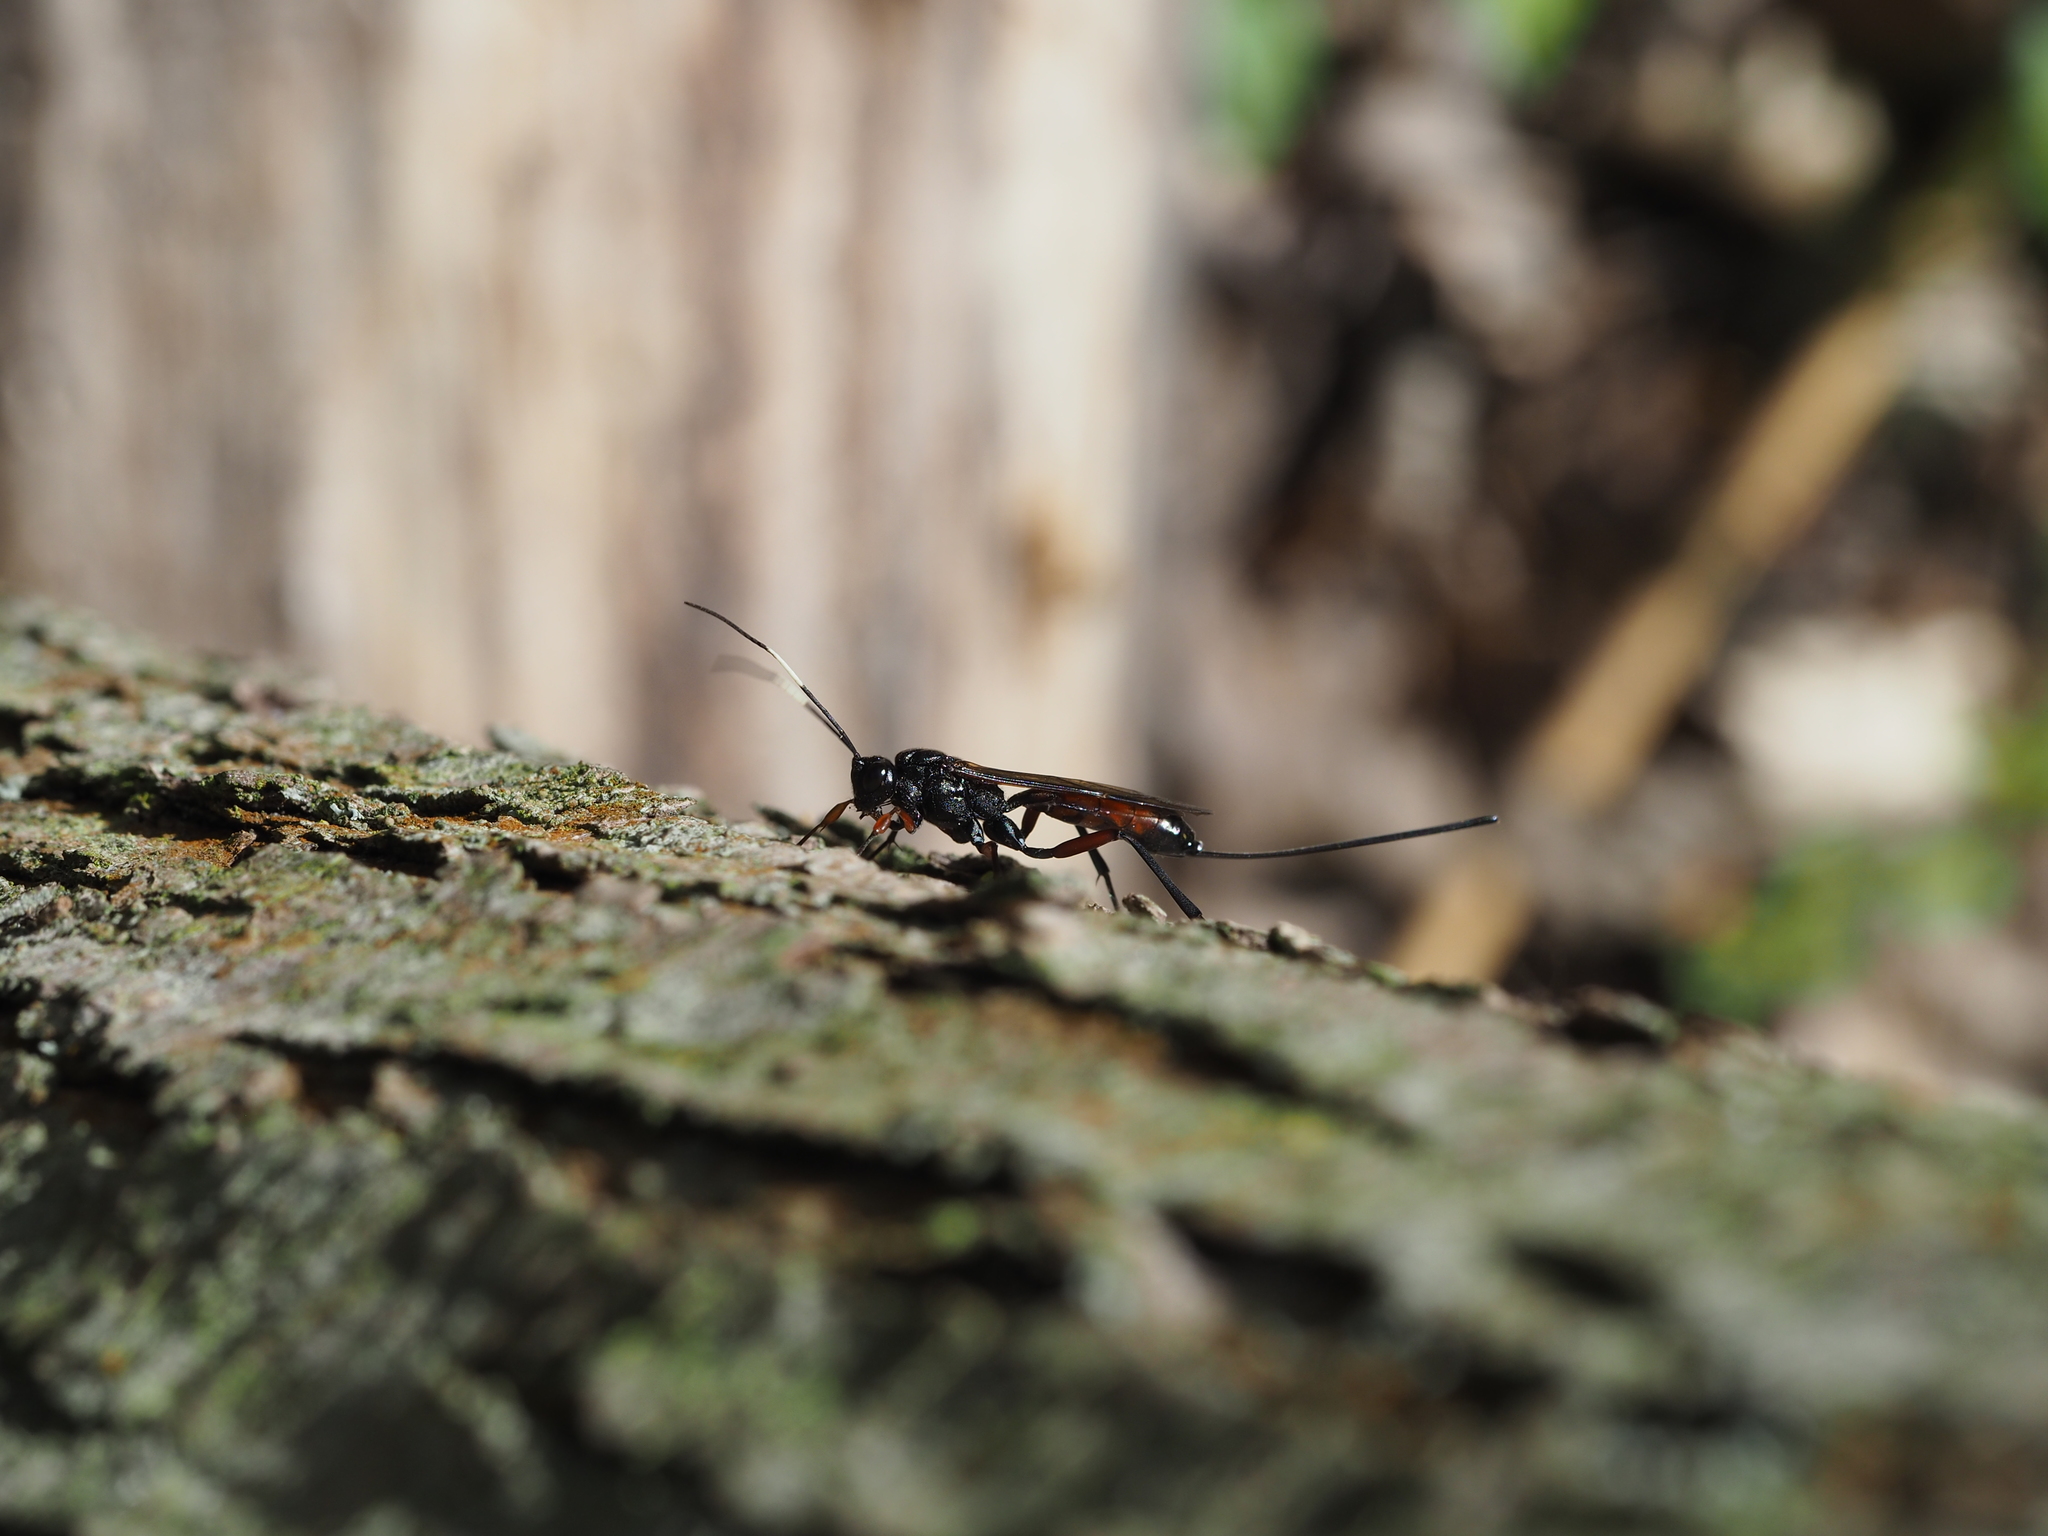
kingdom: Animalia
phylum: Arthropoda
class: Insecta
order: Hymenoptera
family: Ichneumonidae
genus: Echthrus
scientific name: Echthrus reluctator
